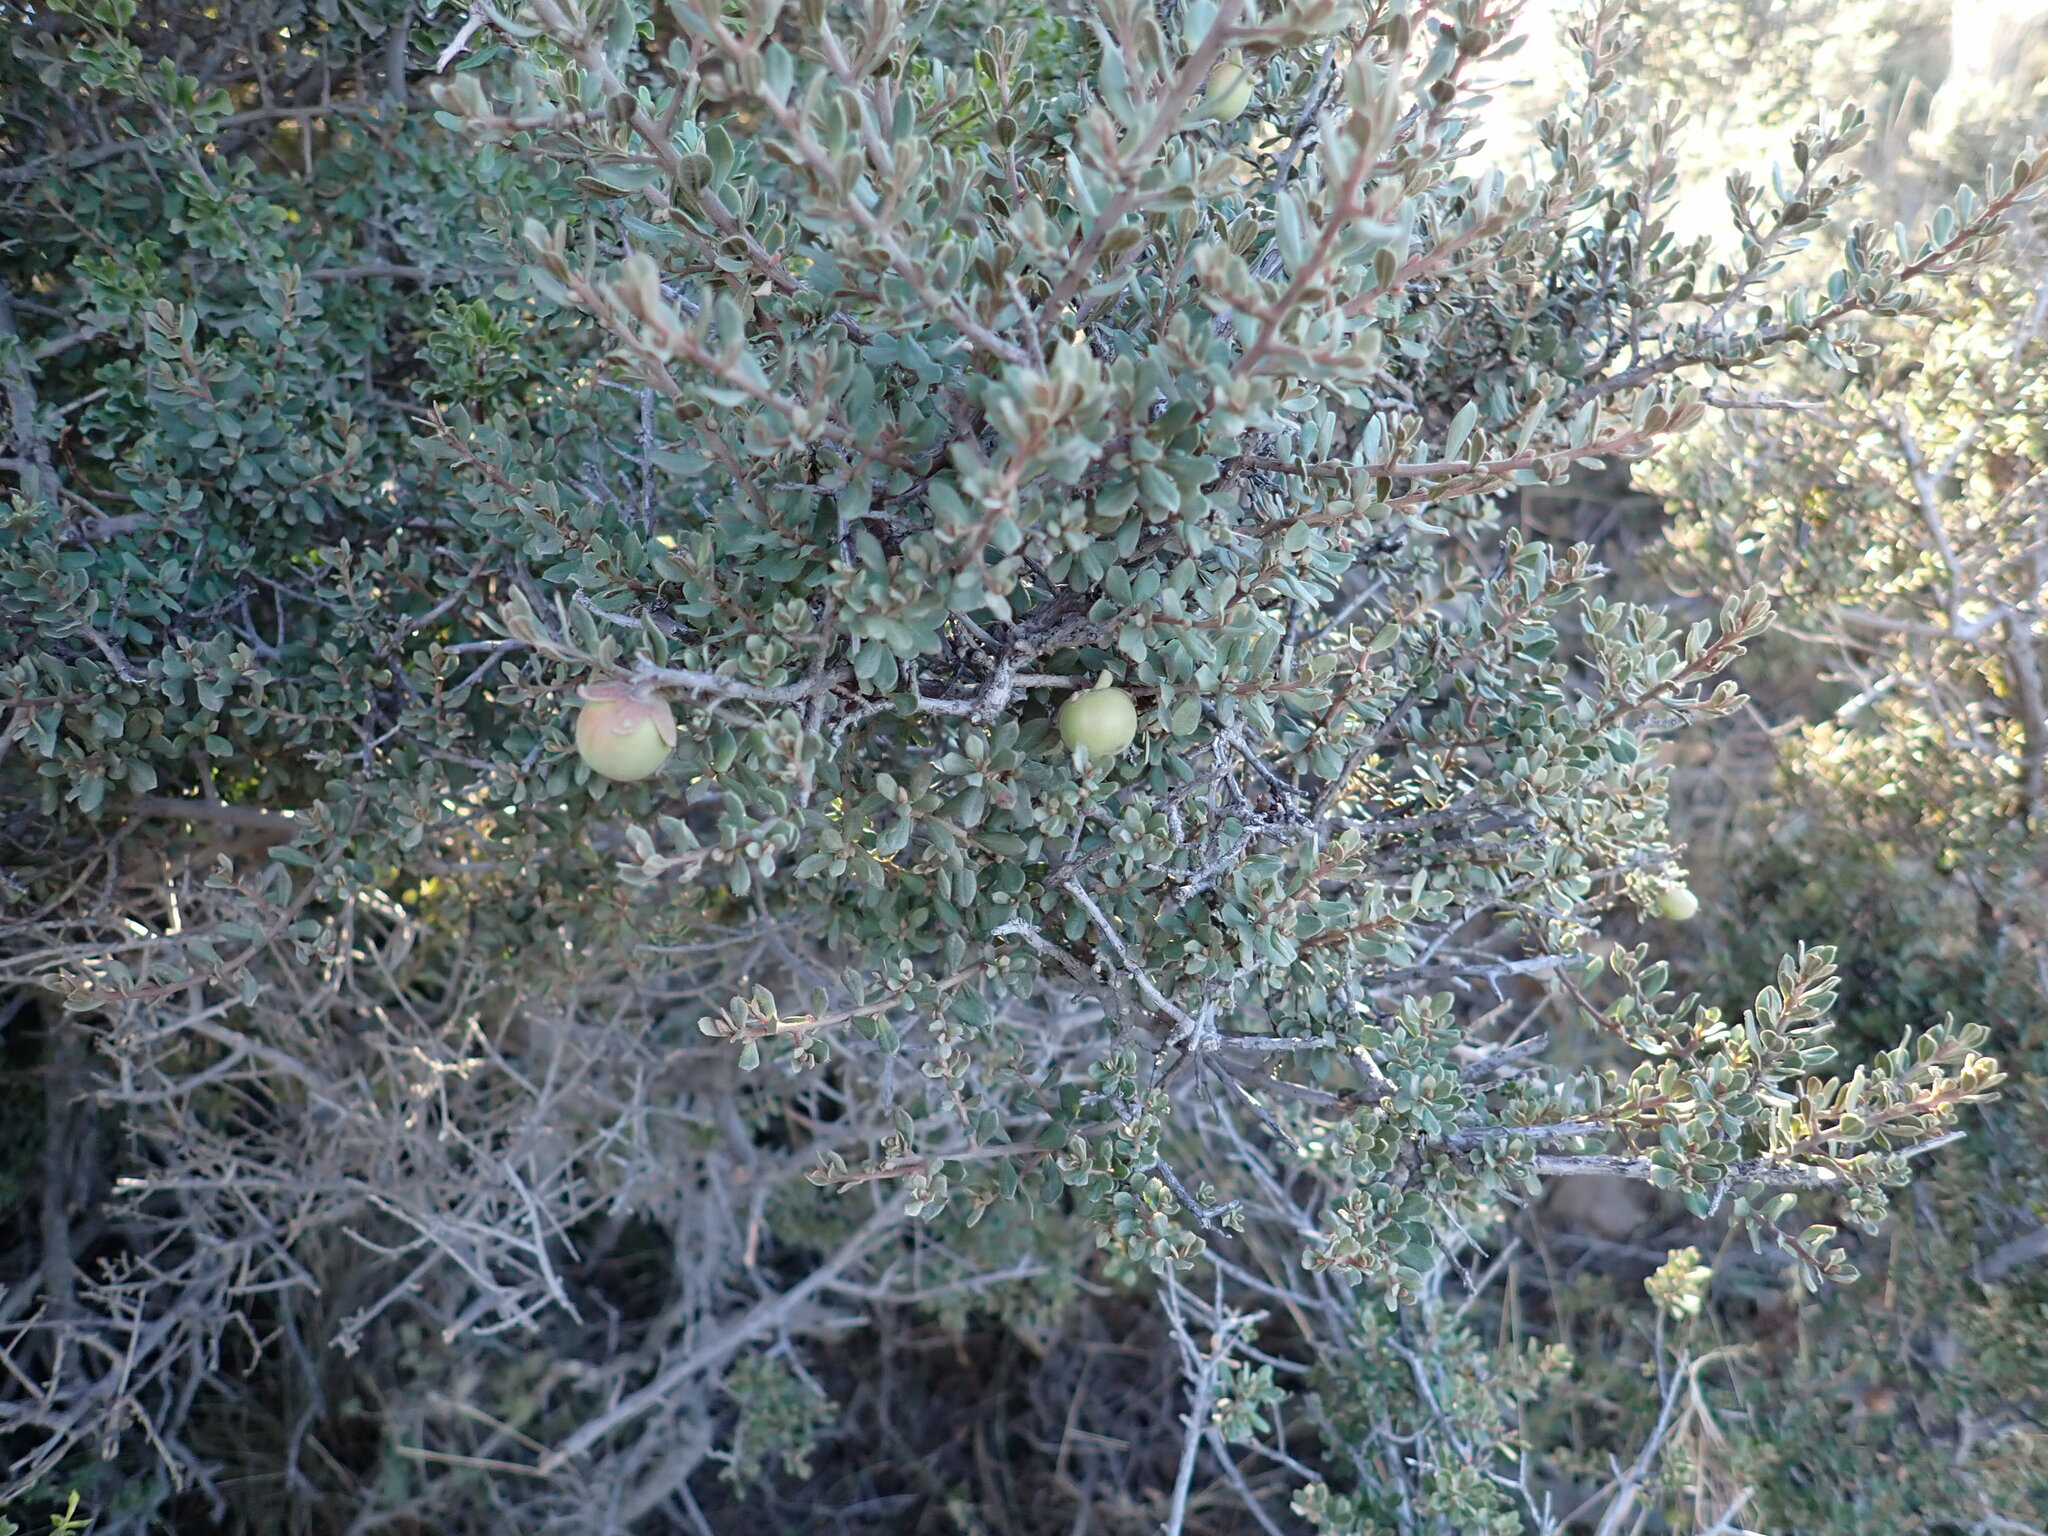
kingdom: Plantae
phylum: Tracheophyta
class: Magnoliopsida
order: Ericales
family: Ebenaceae
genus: Diospyros
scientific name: Diospyros pubescens
